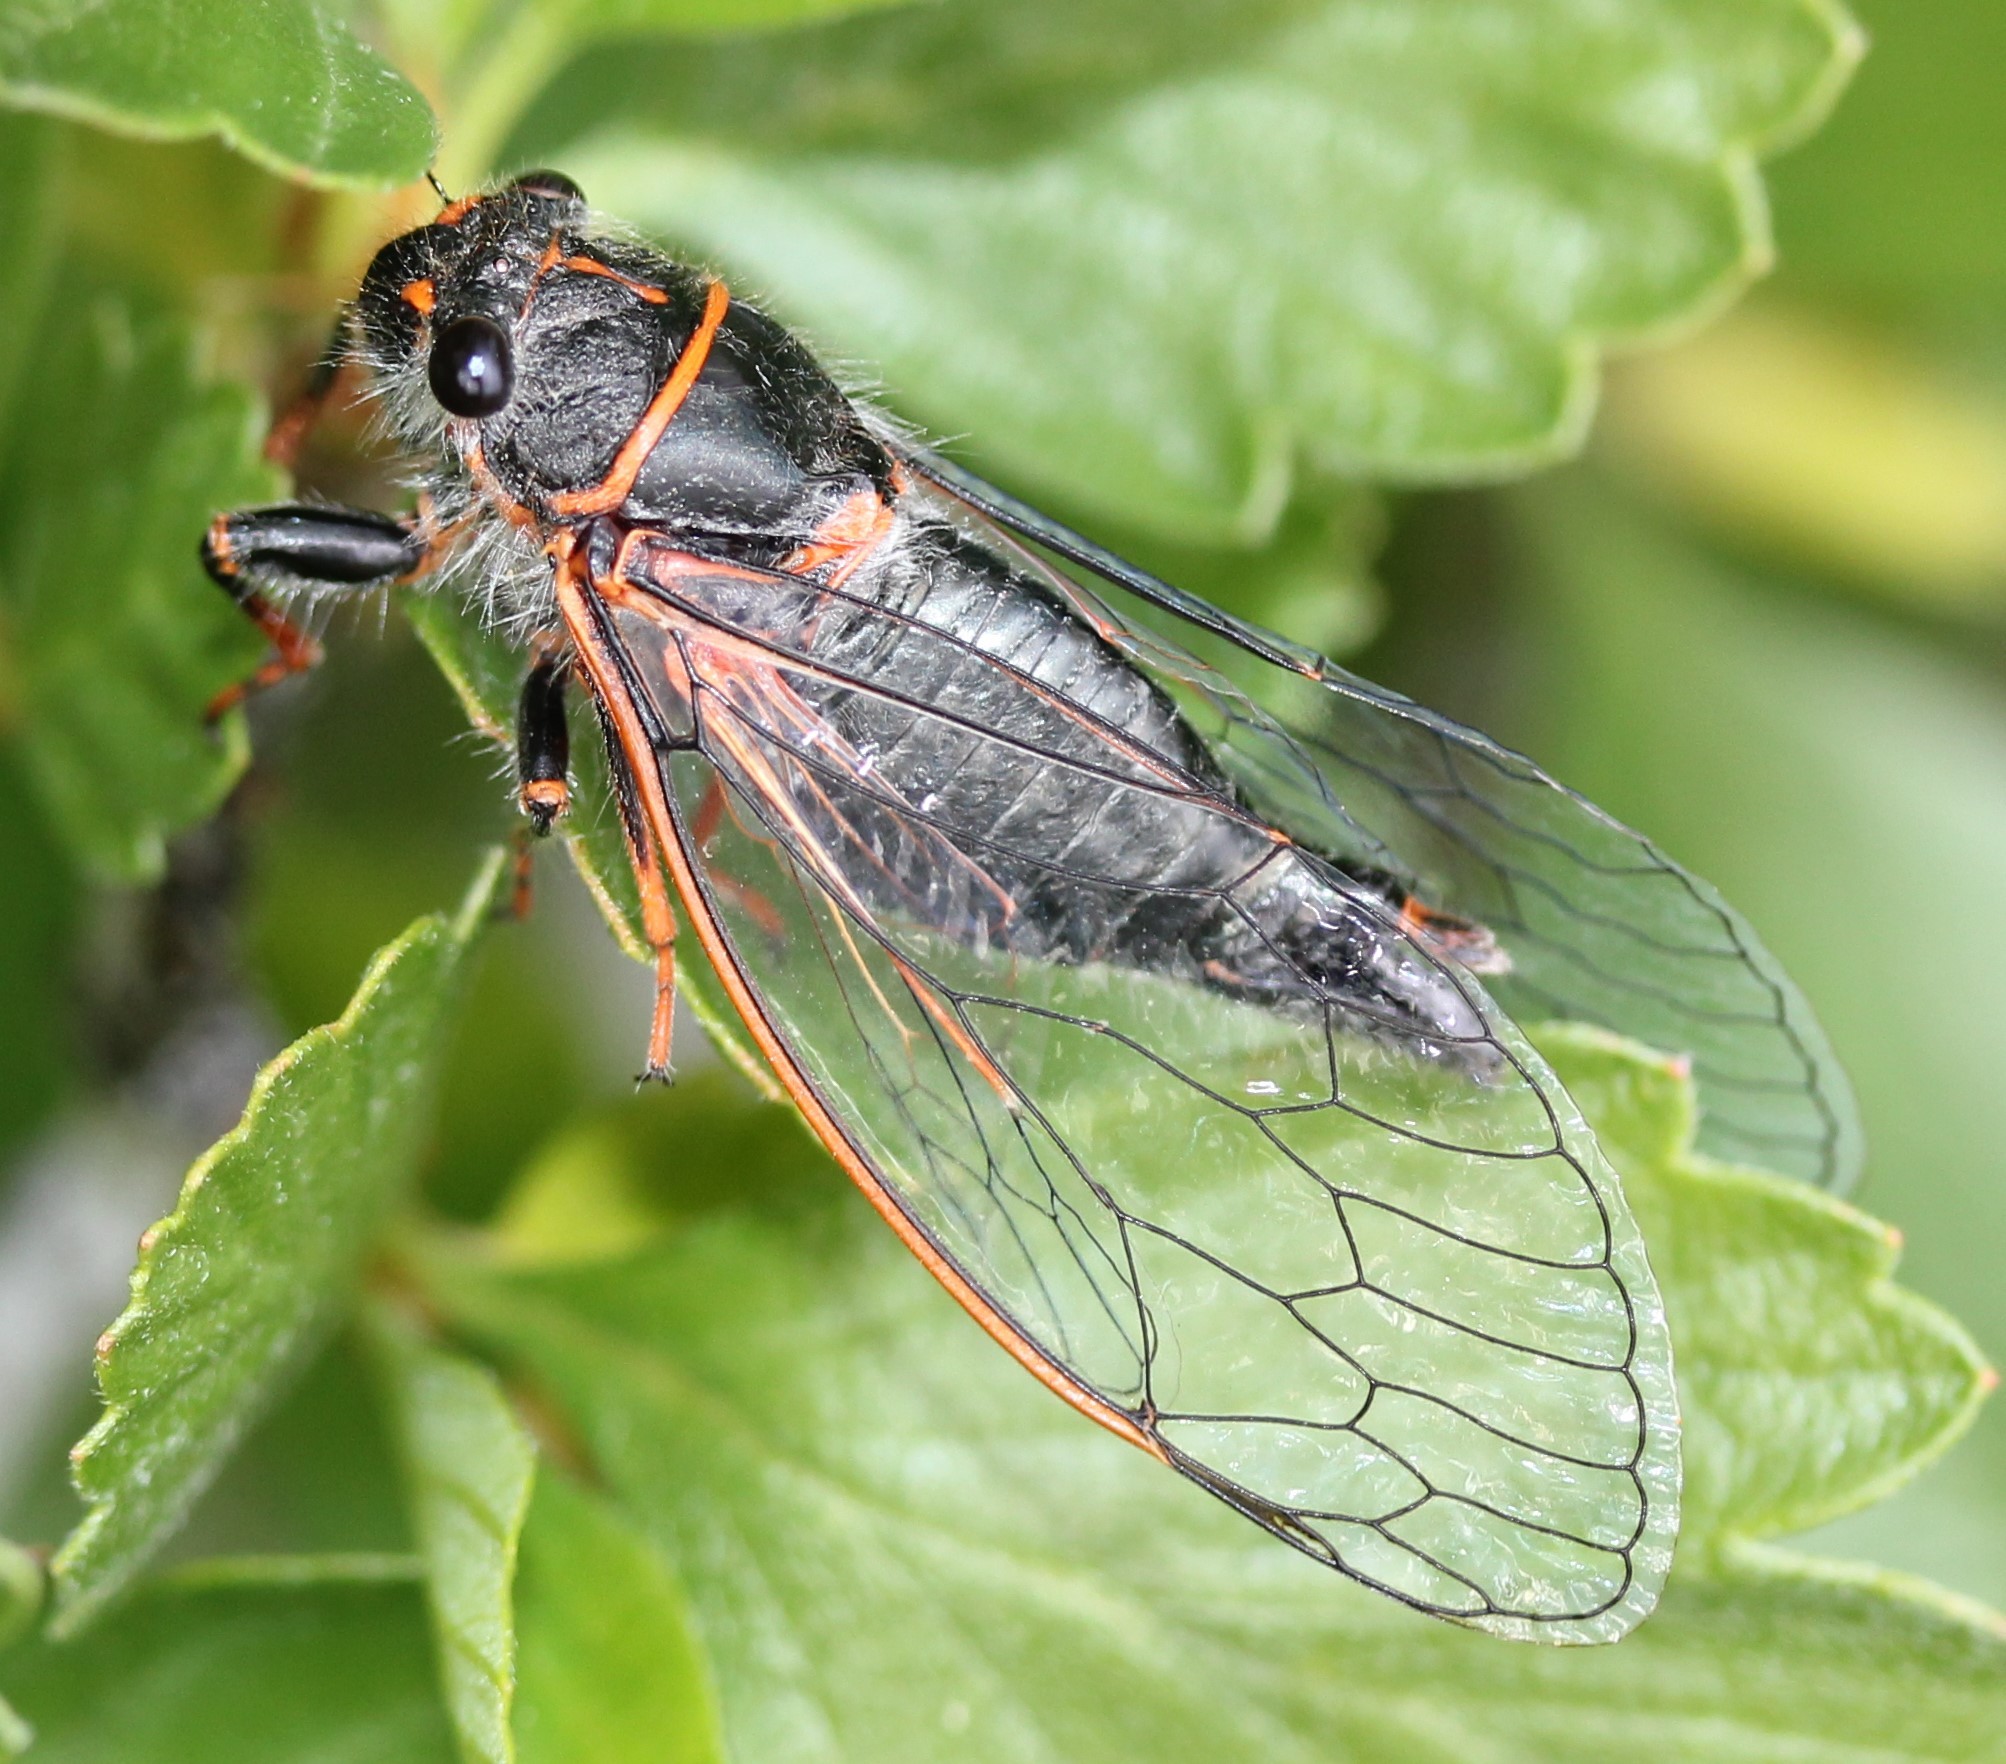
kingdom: Animalia
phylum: Arthropoda
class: Insecta
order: Hemiptera
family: Cicadidae
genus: Platypedia
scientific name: Platypedia putnami
